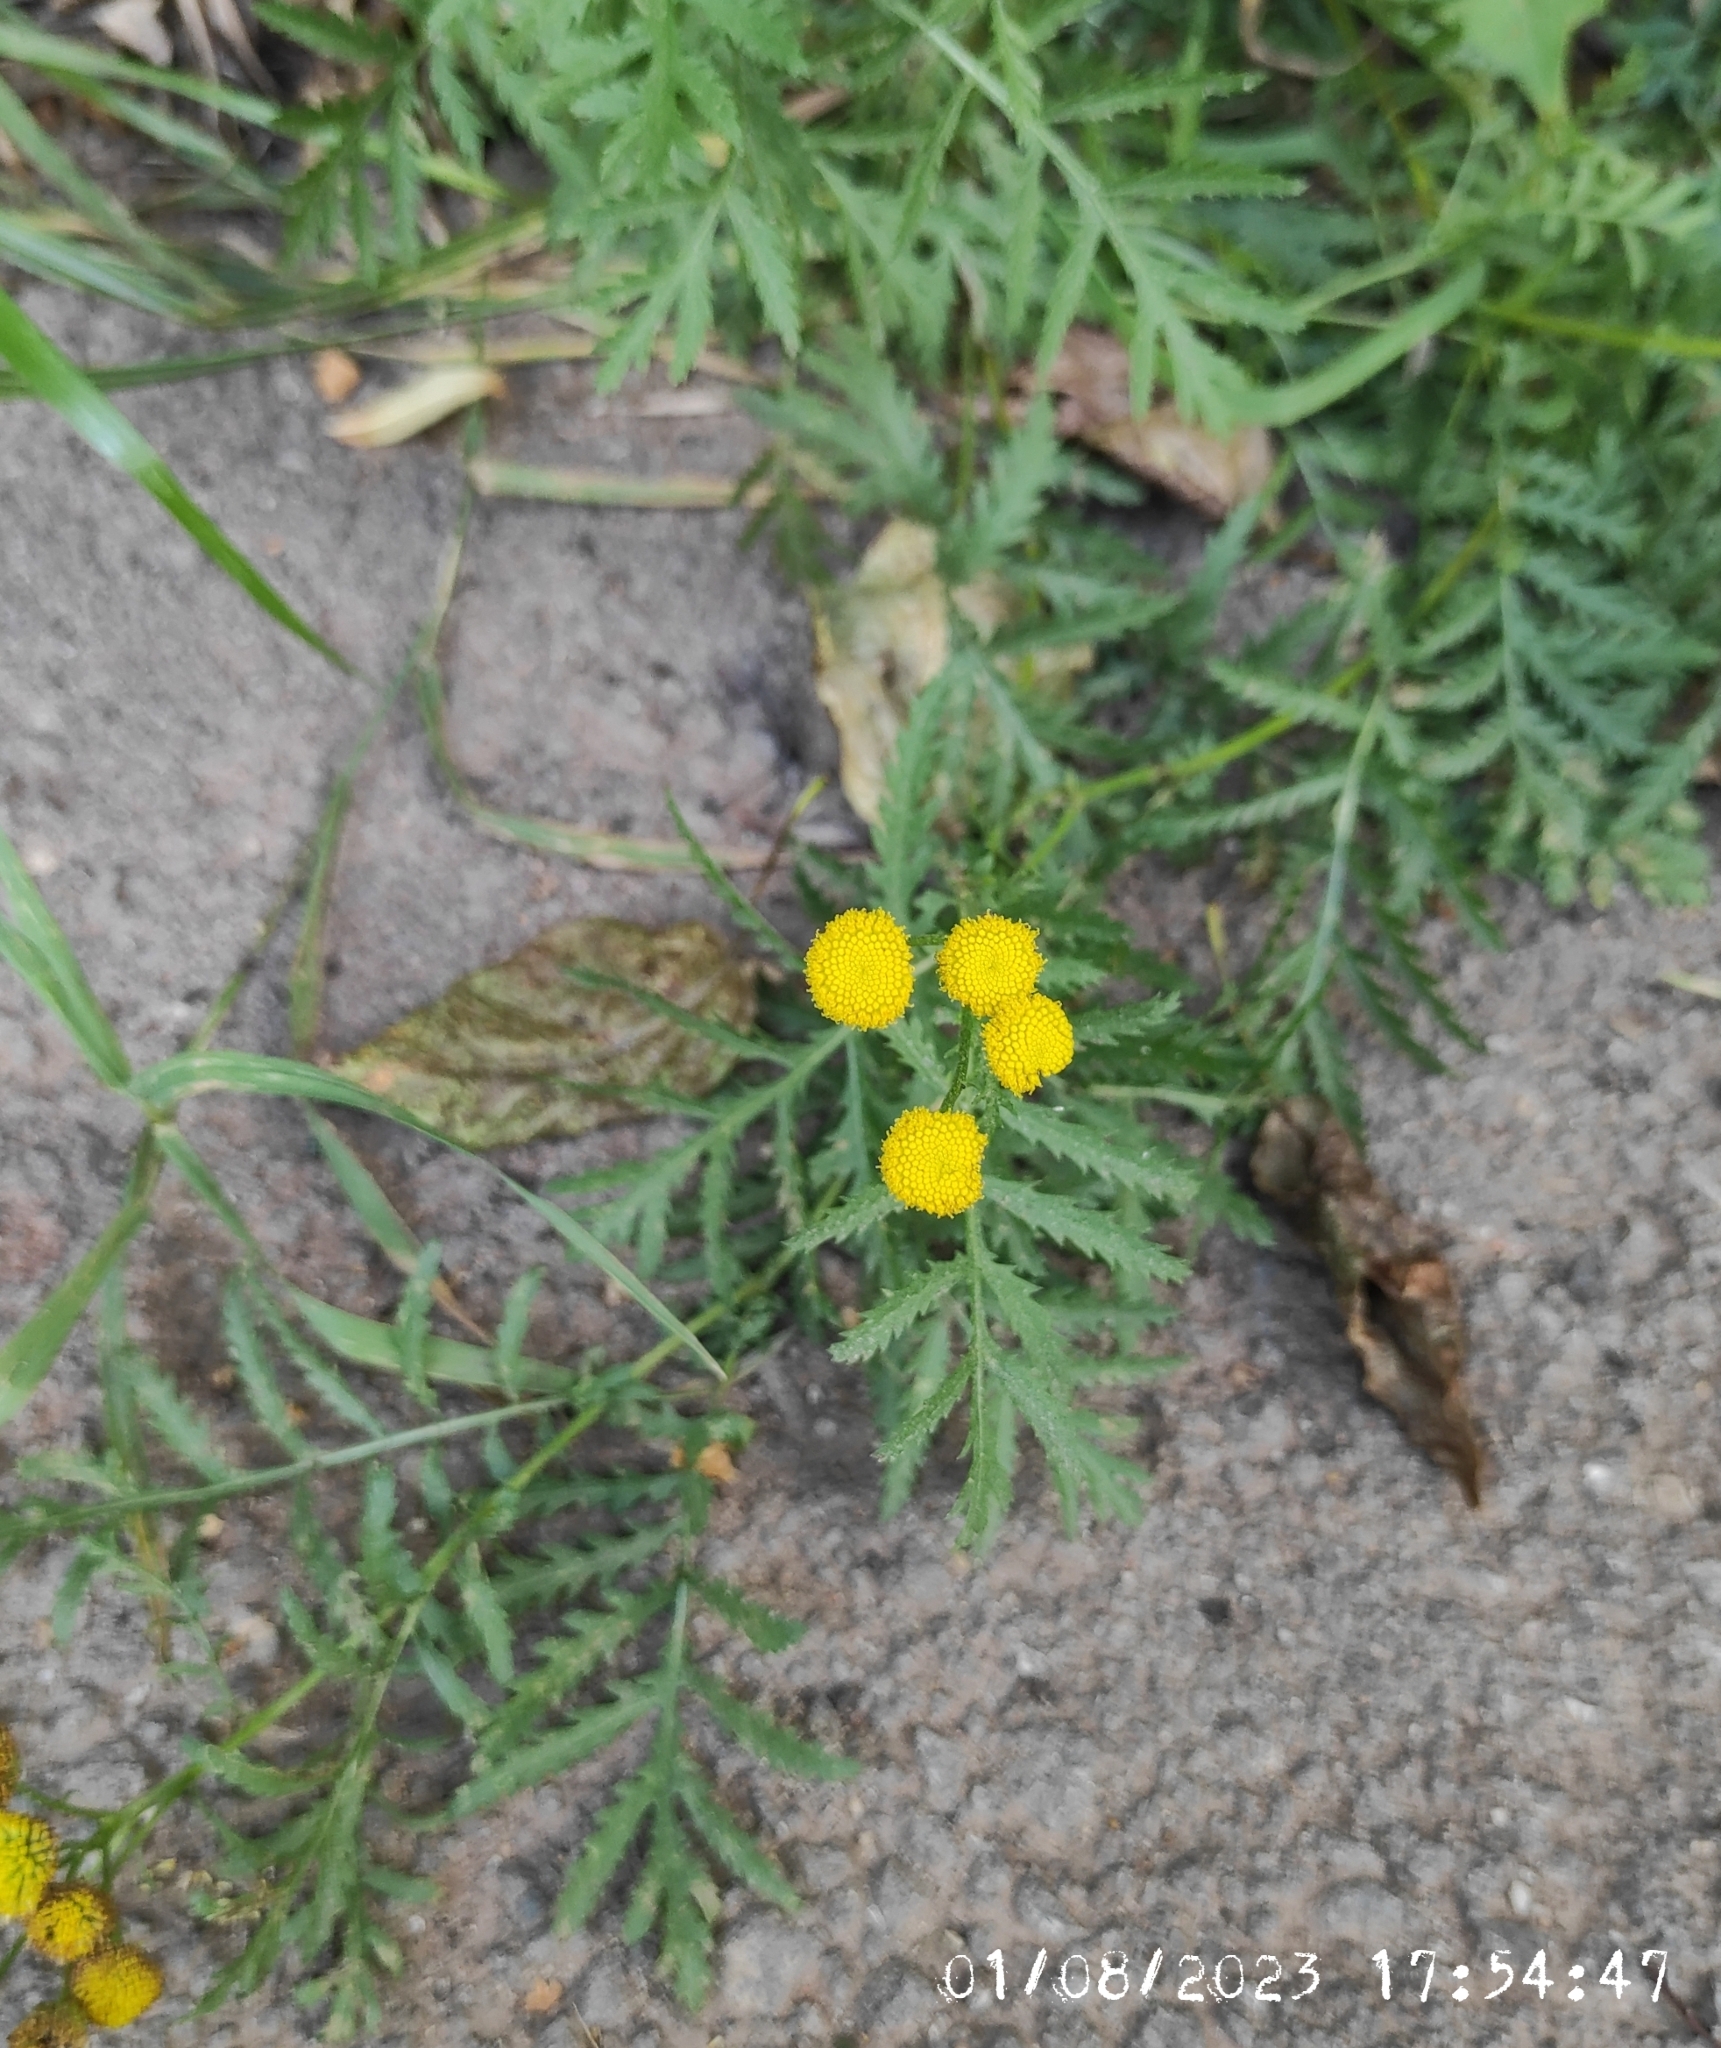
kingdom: Plantae
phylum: Tracheophyta
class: Magnoliopsida
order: Asterales
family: Asteraceae
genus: Tanacetum
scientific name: Tanacetum vulgare
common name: Common tansy
